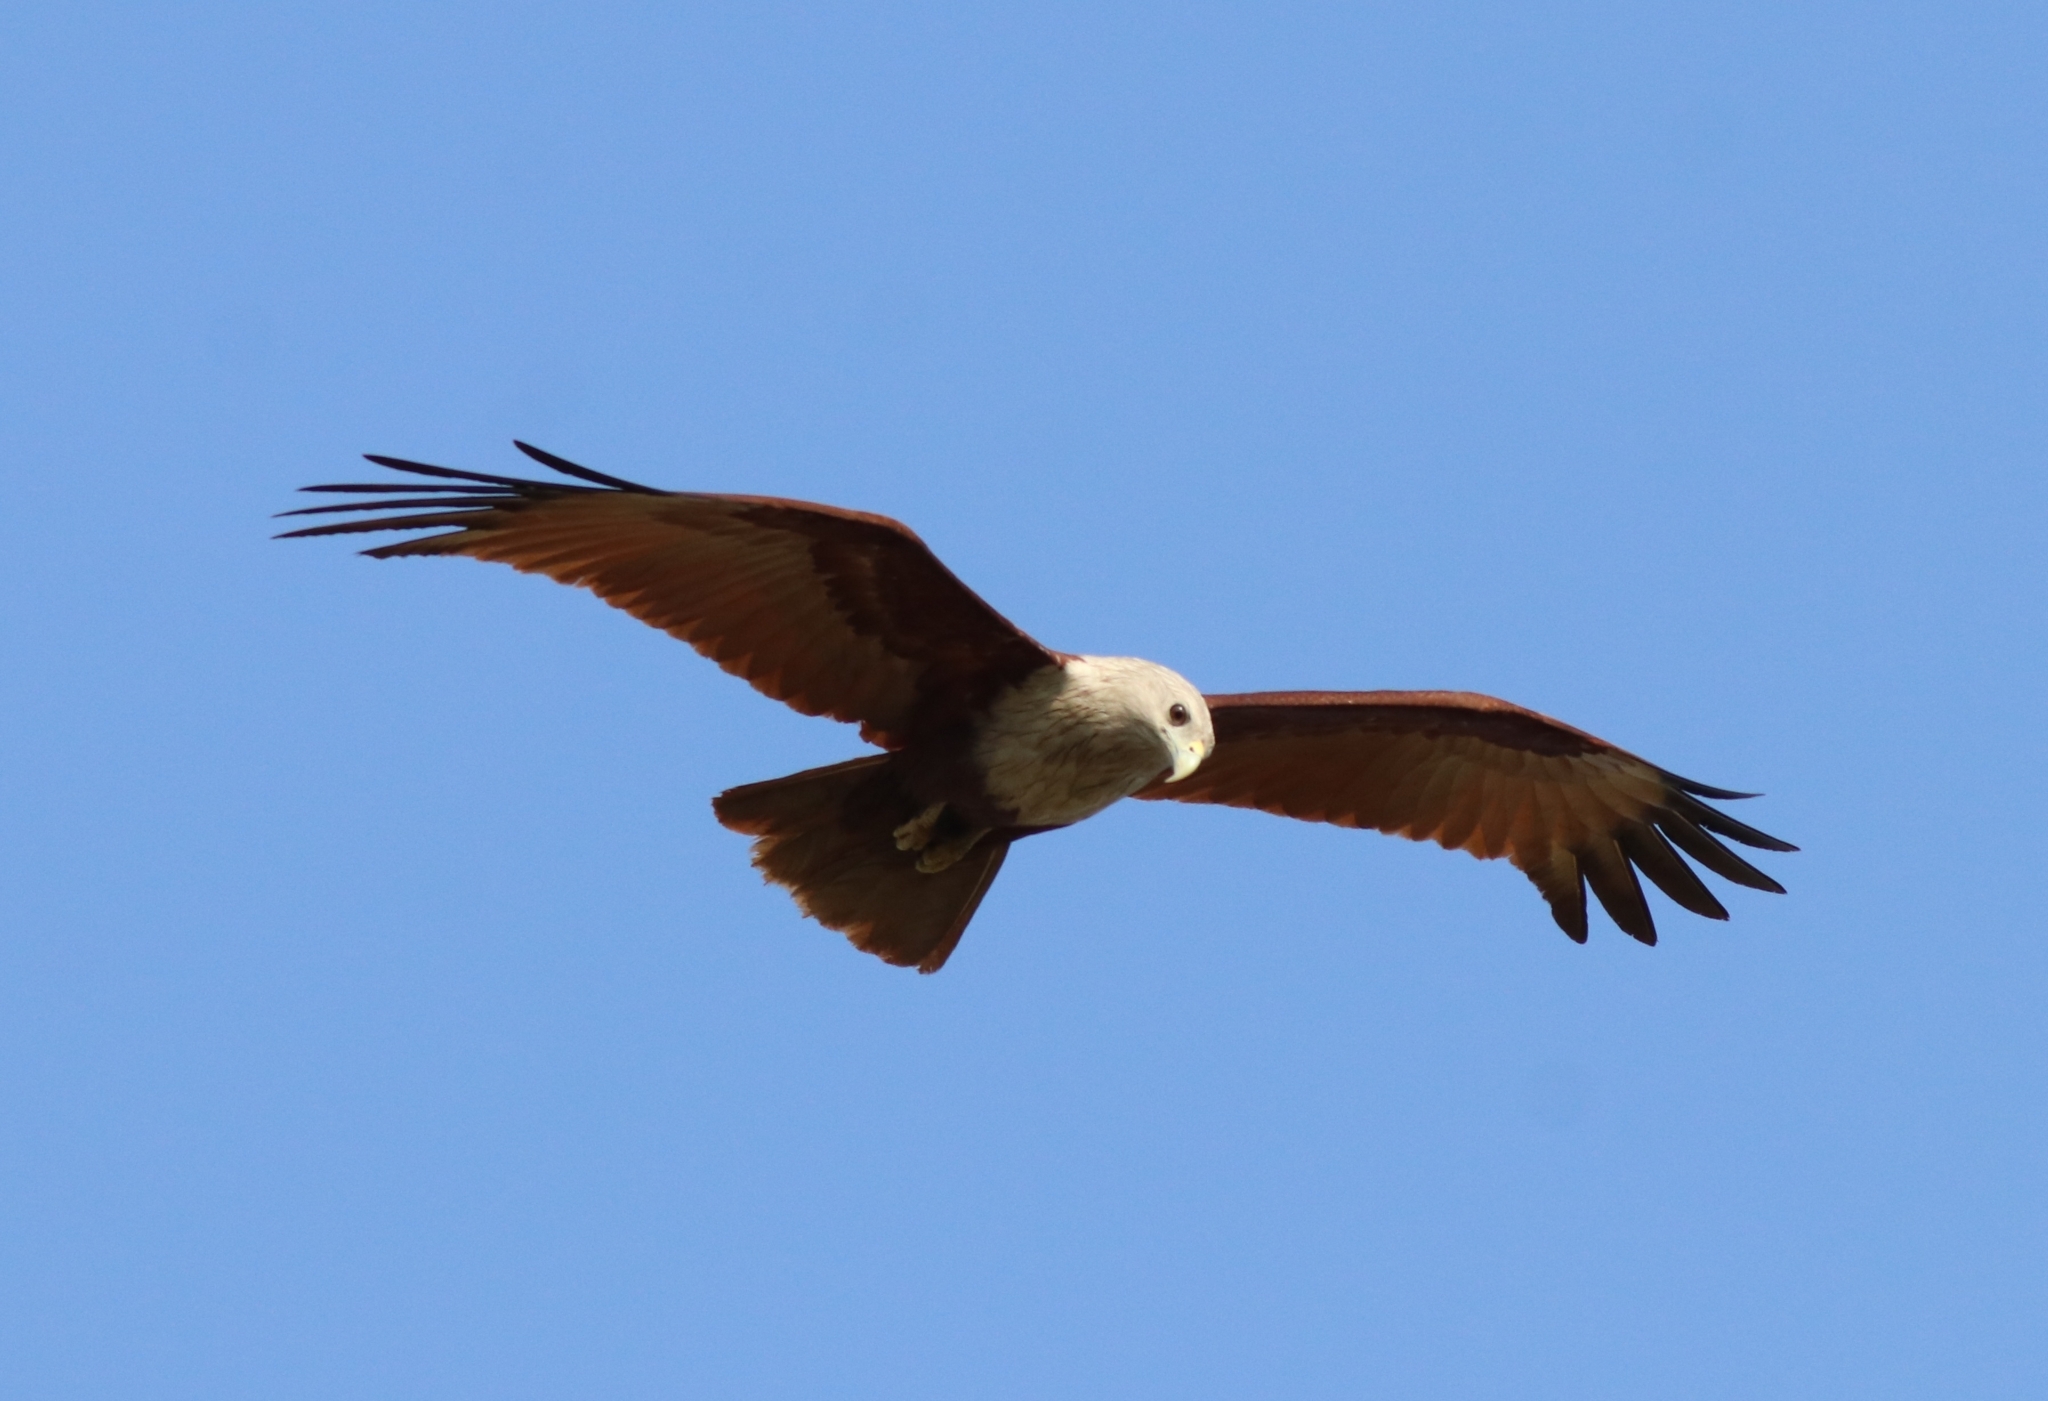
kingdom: Animalia
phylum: Chordata
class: Aves
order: Accipitriformes
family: Accipitridae
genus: Haliastur
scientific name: Haliastur indus
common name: Brahminy kite
